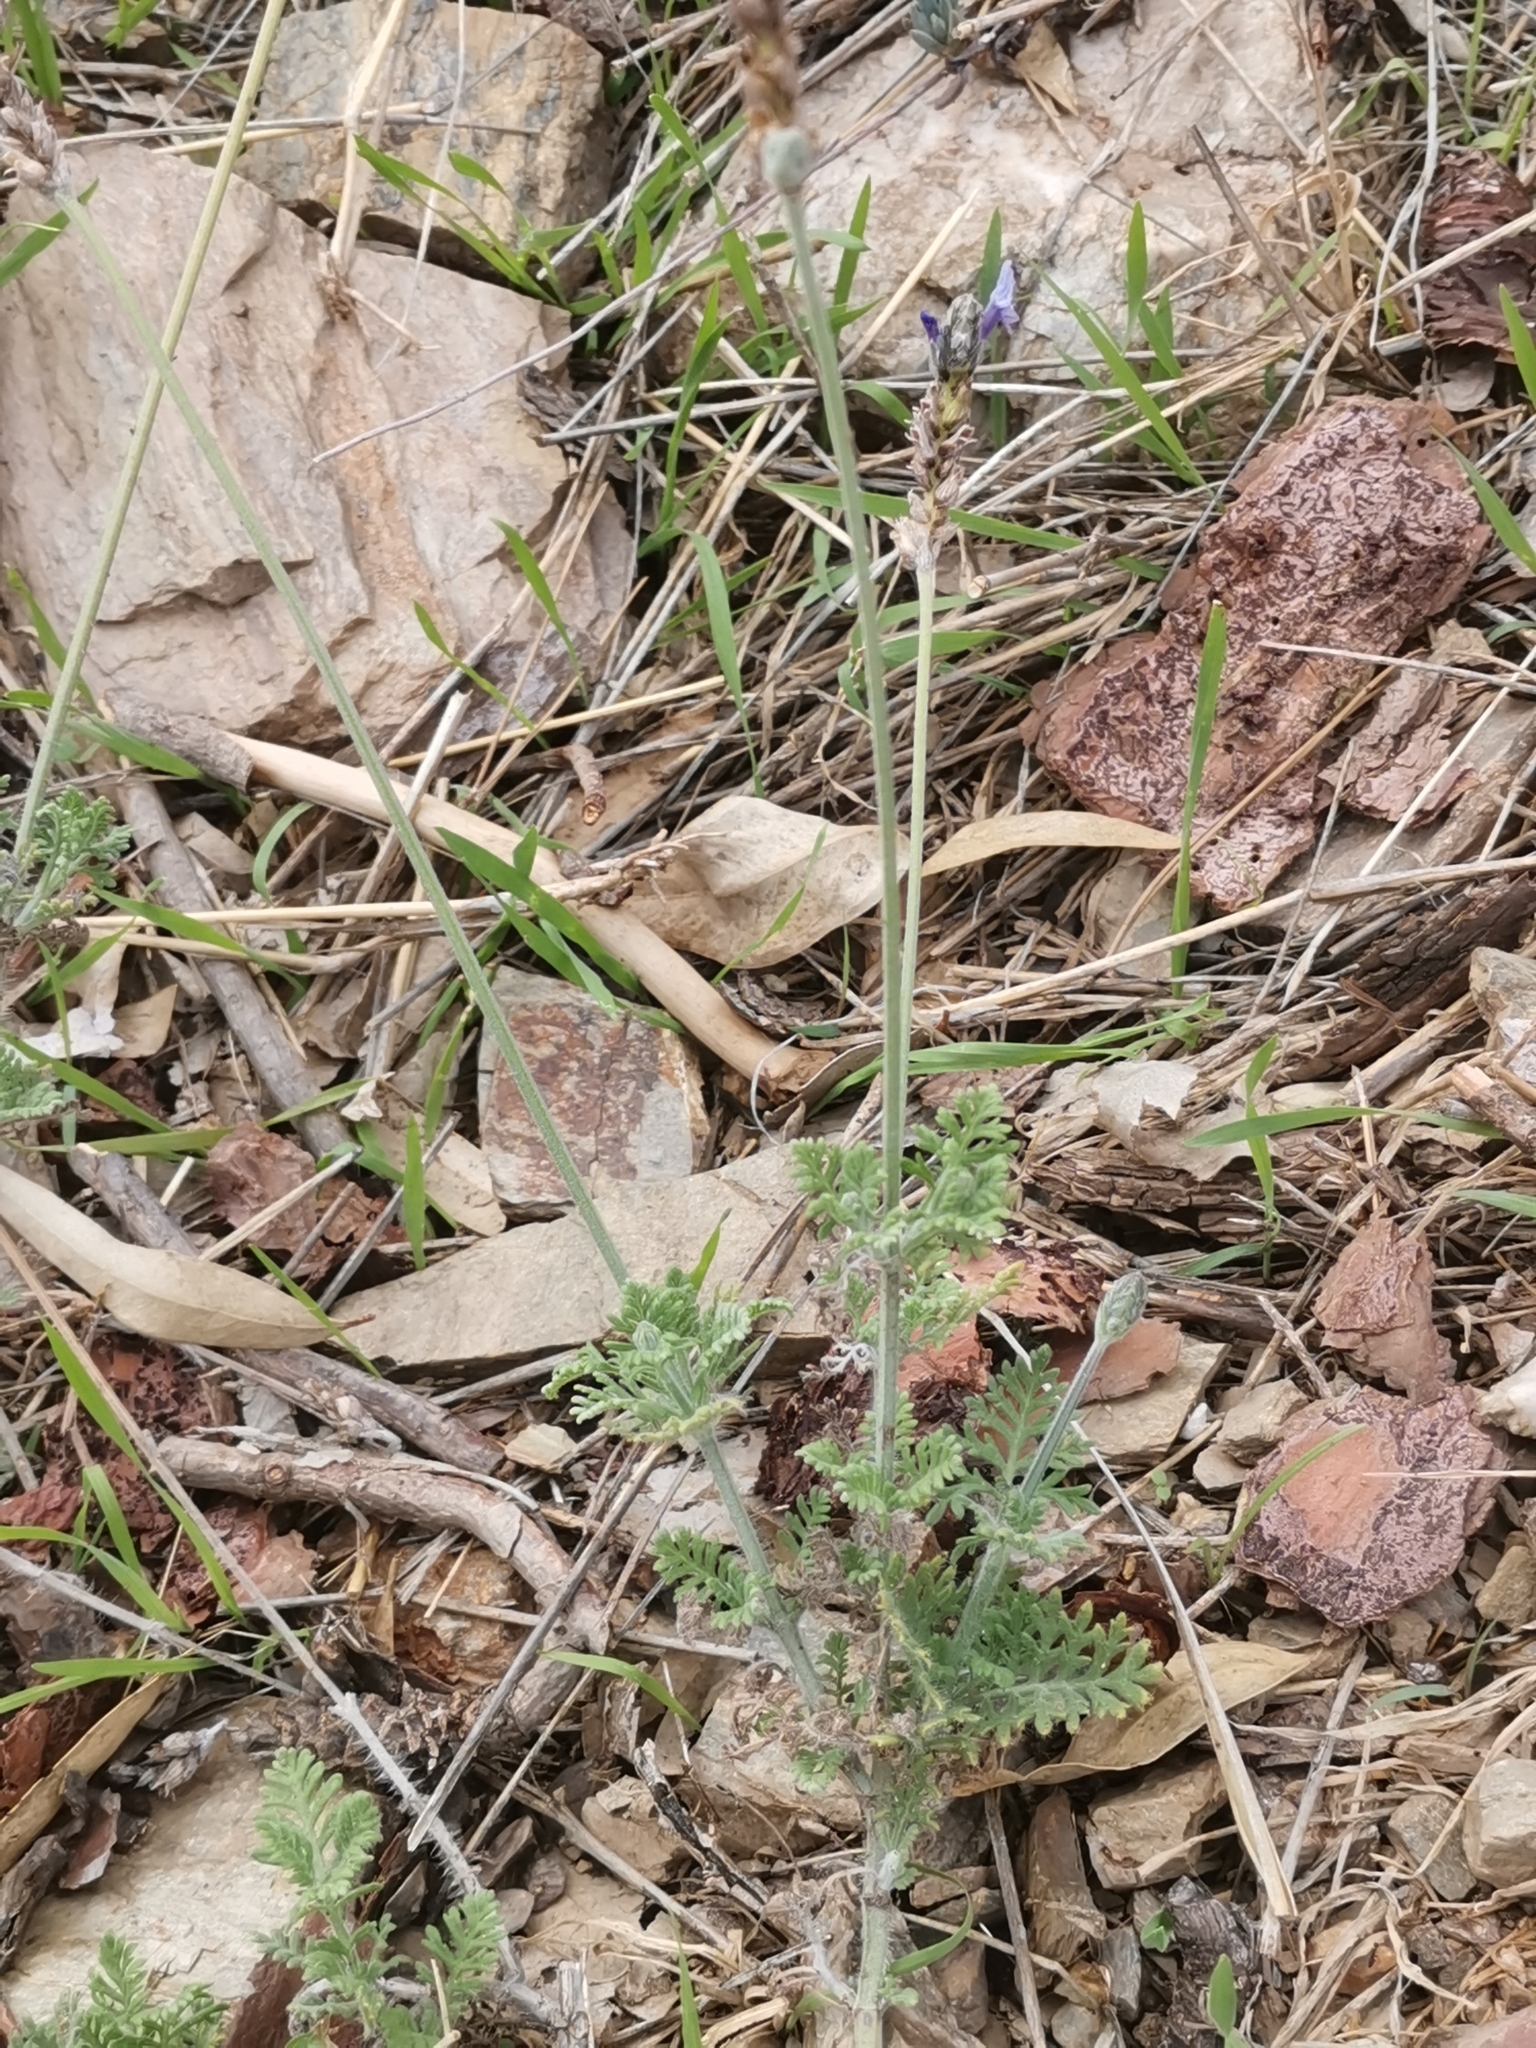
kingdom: Plantae
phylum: Tracheophyta
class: Magnoliopsida
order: Lamiales
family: Lamiaceae
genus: Lavandula
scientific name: Lavandula multifida
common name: Fern-leaf lavender
